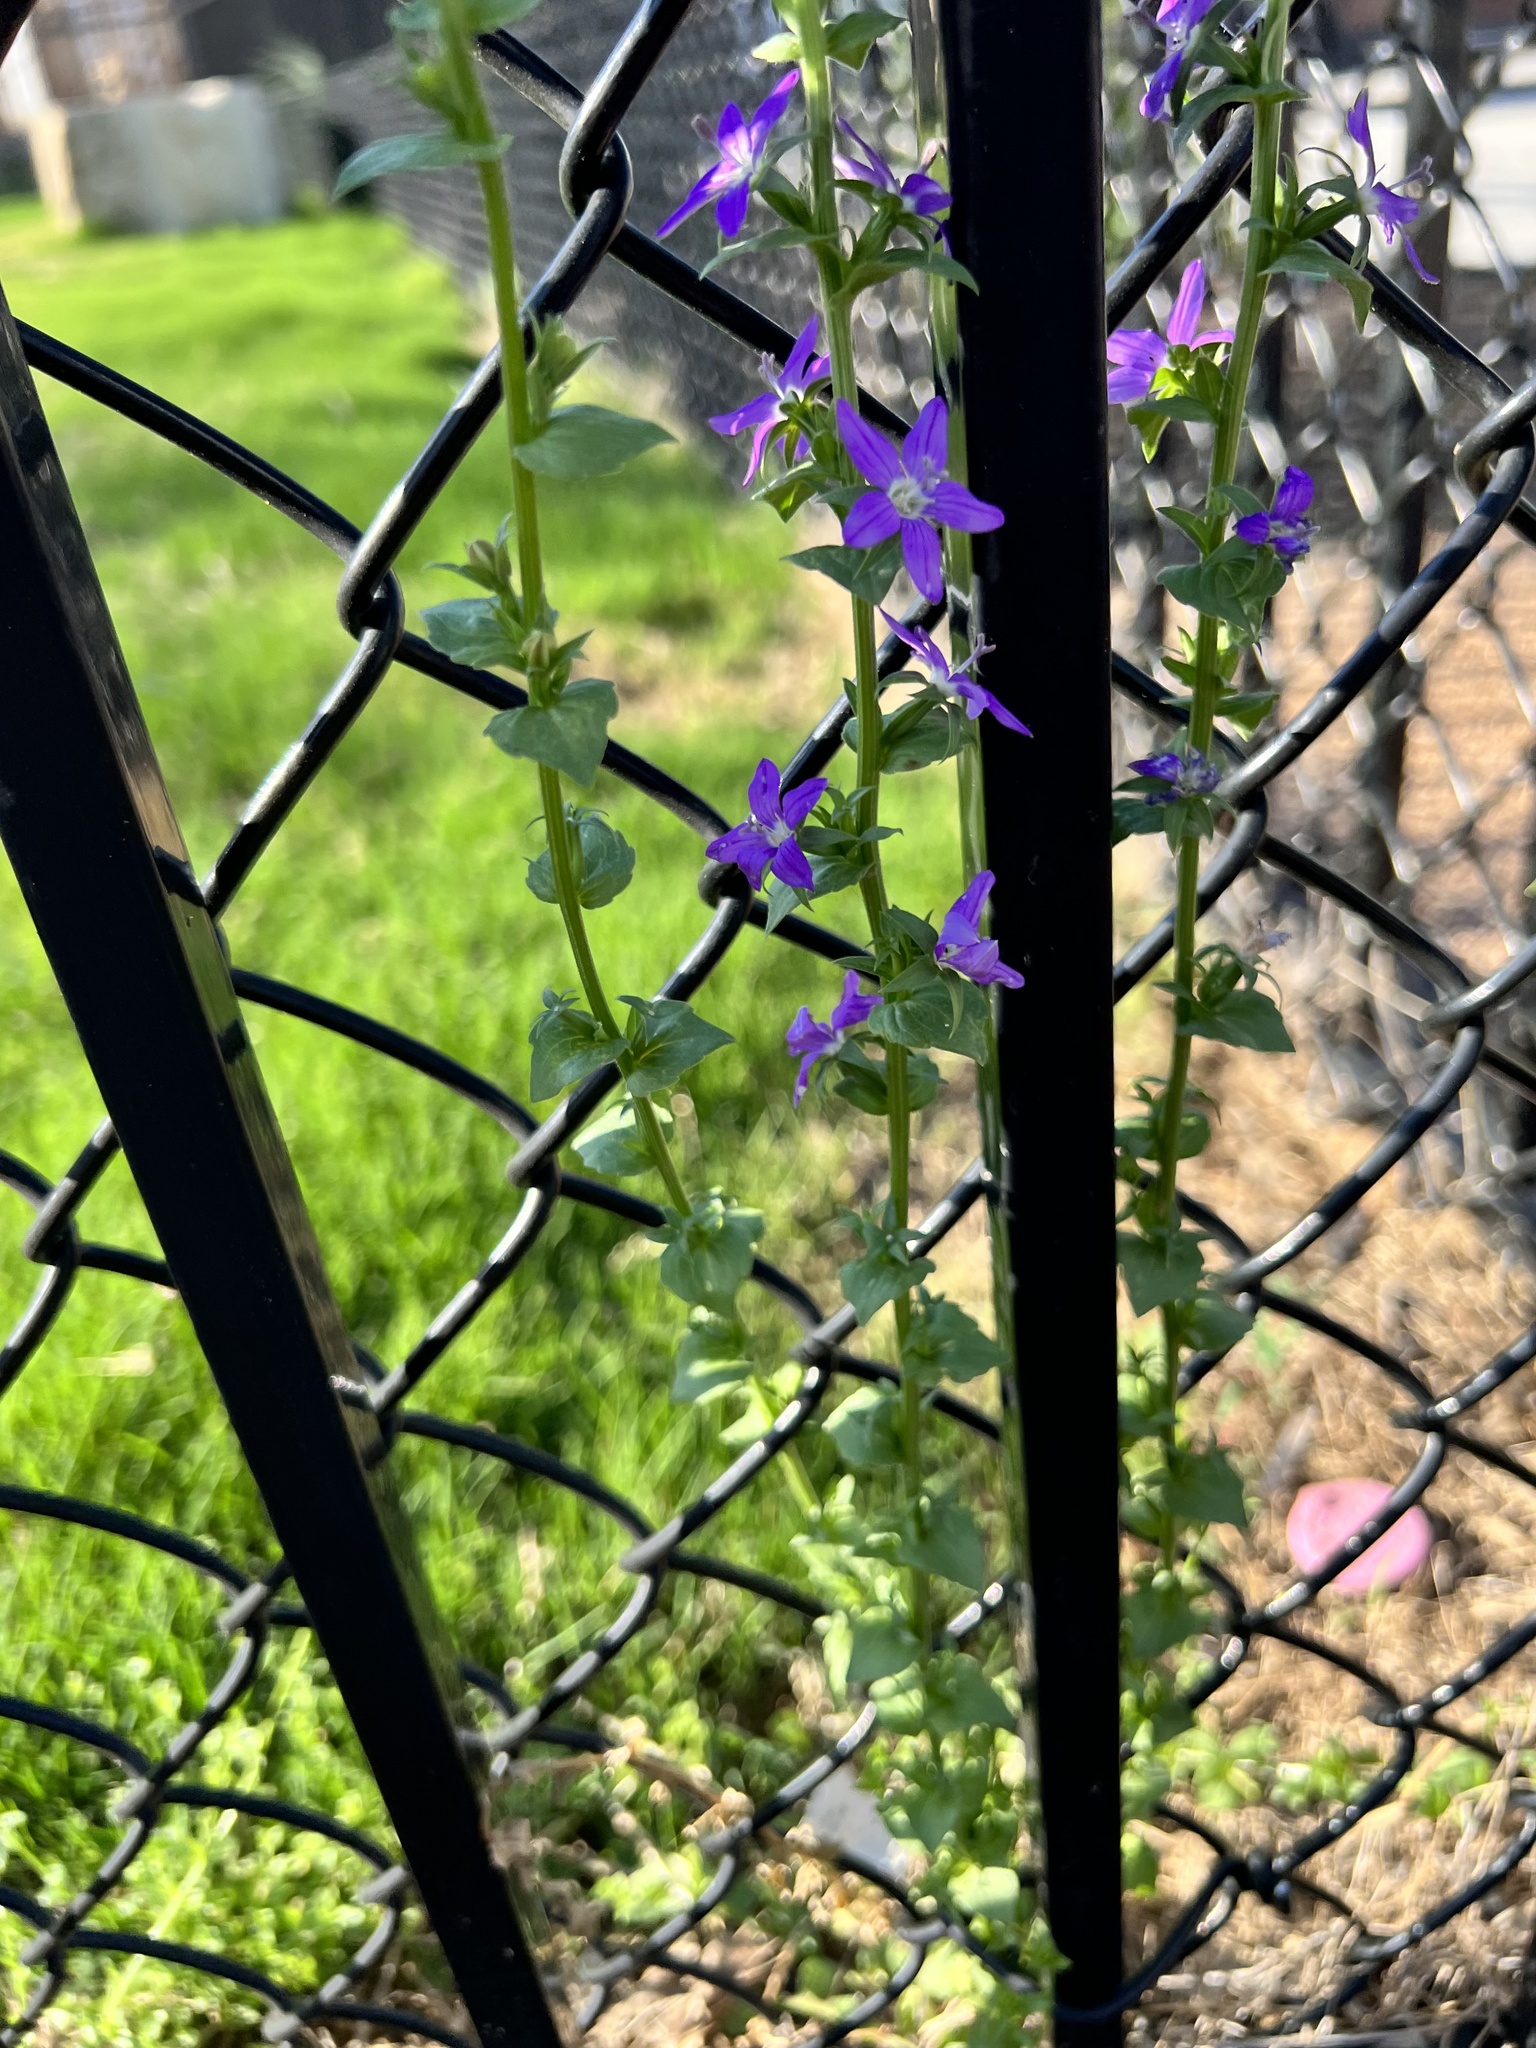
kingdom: Plantae
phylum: Tracheophyta
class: Magnoliopsida
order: Asterales
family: Campanulaceae
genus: Triodanis
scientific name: Triodanis holzingeri
